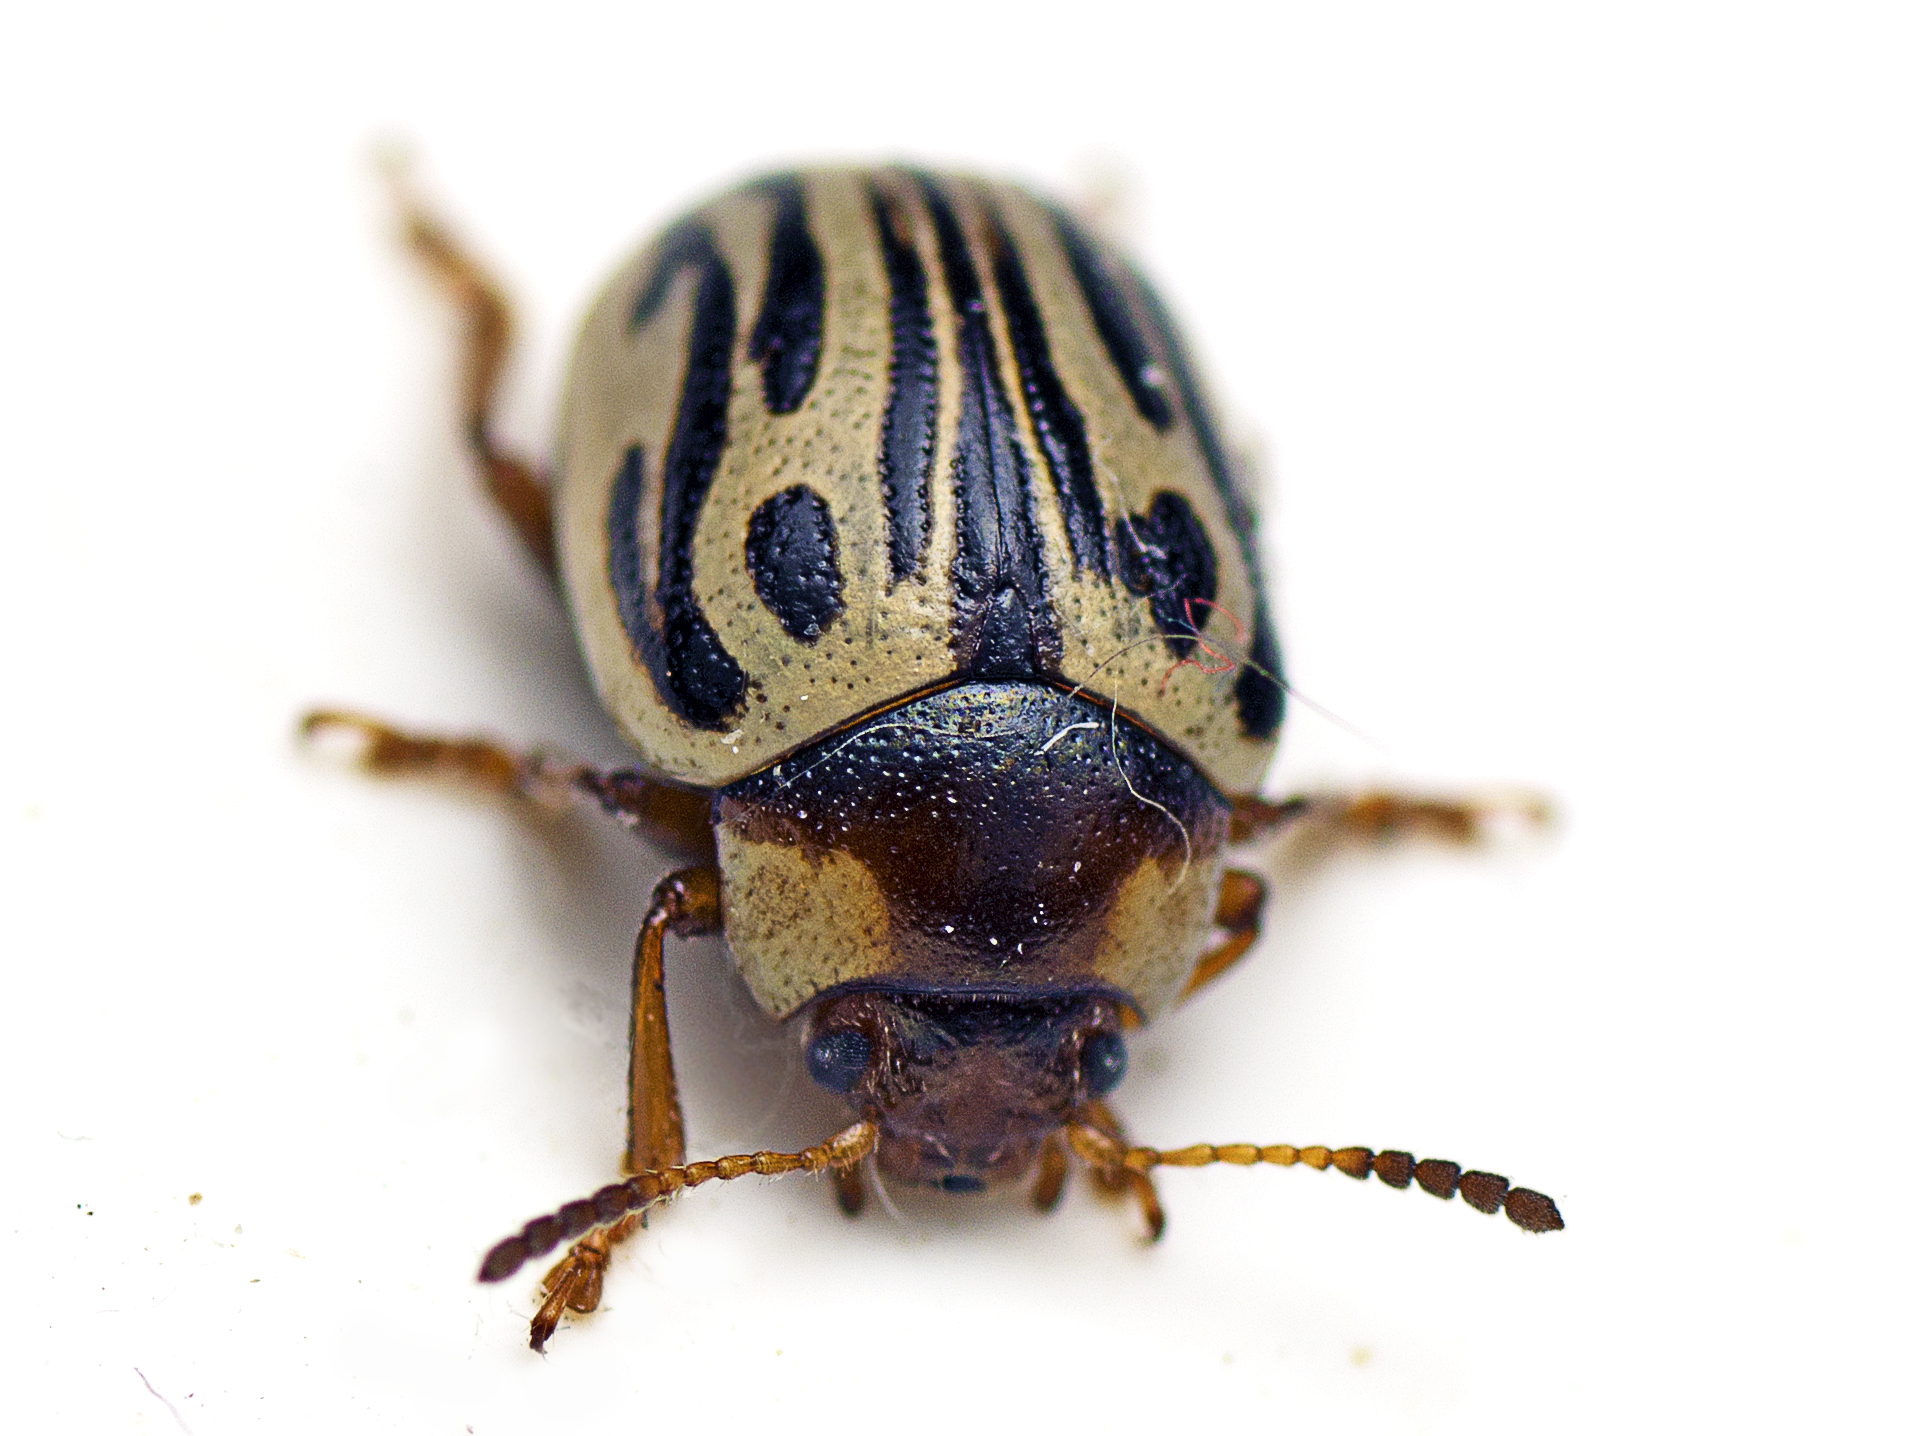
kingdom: Animalia
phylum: Arthropoda
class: Insecta
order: Coleoptera
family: Chrysomelidae
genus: Calligrapha
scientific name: Calligrapha
